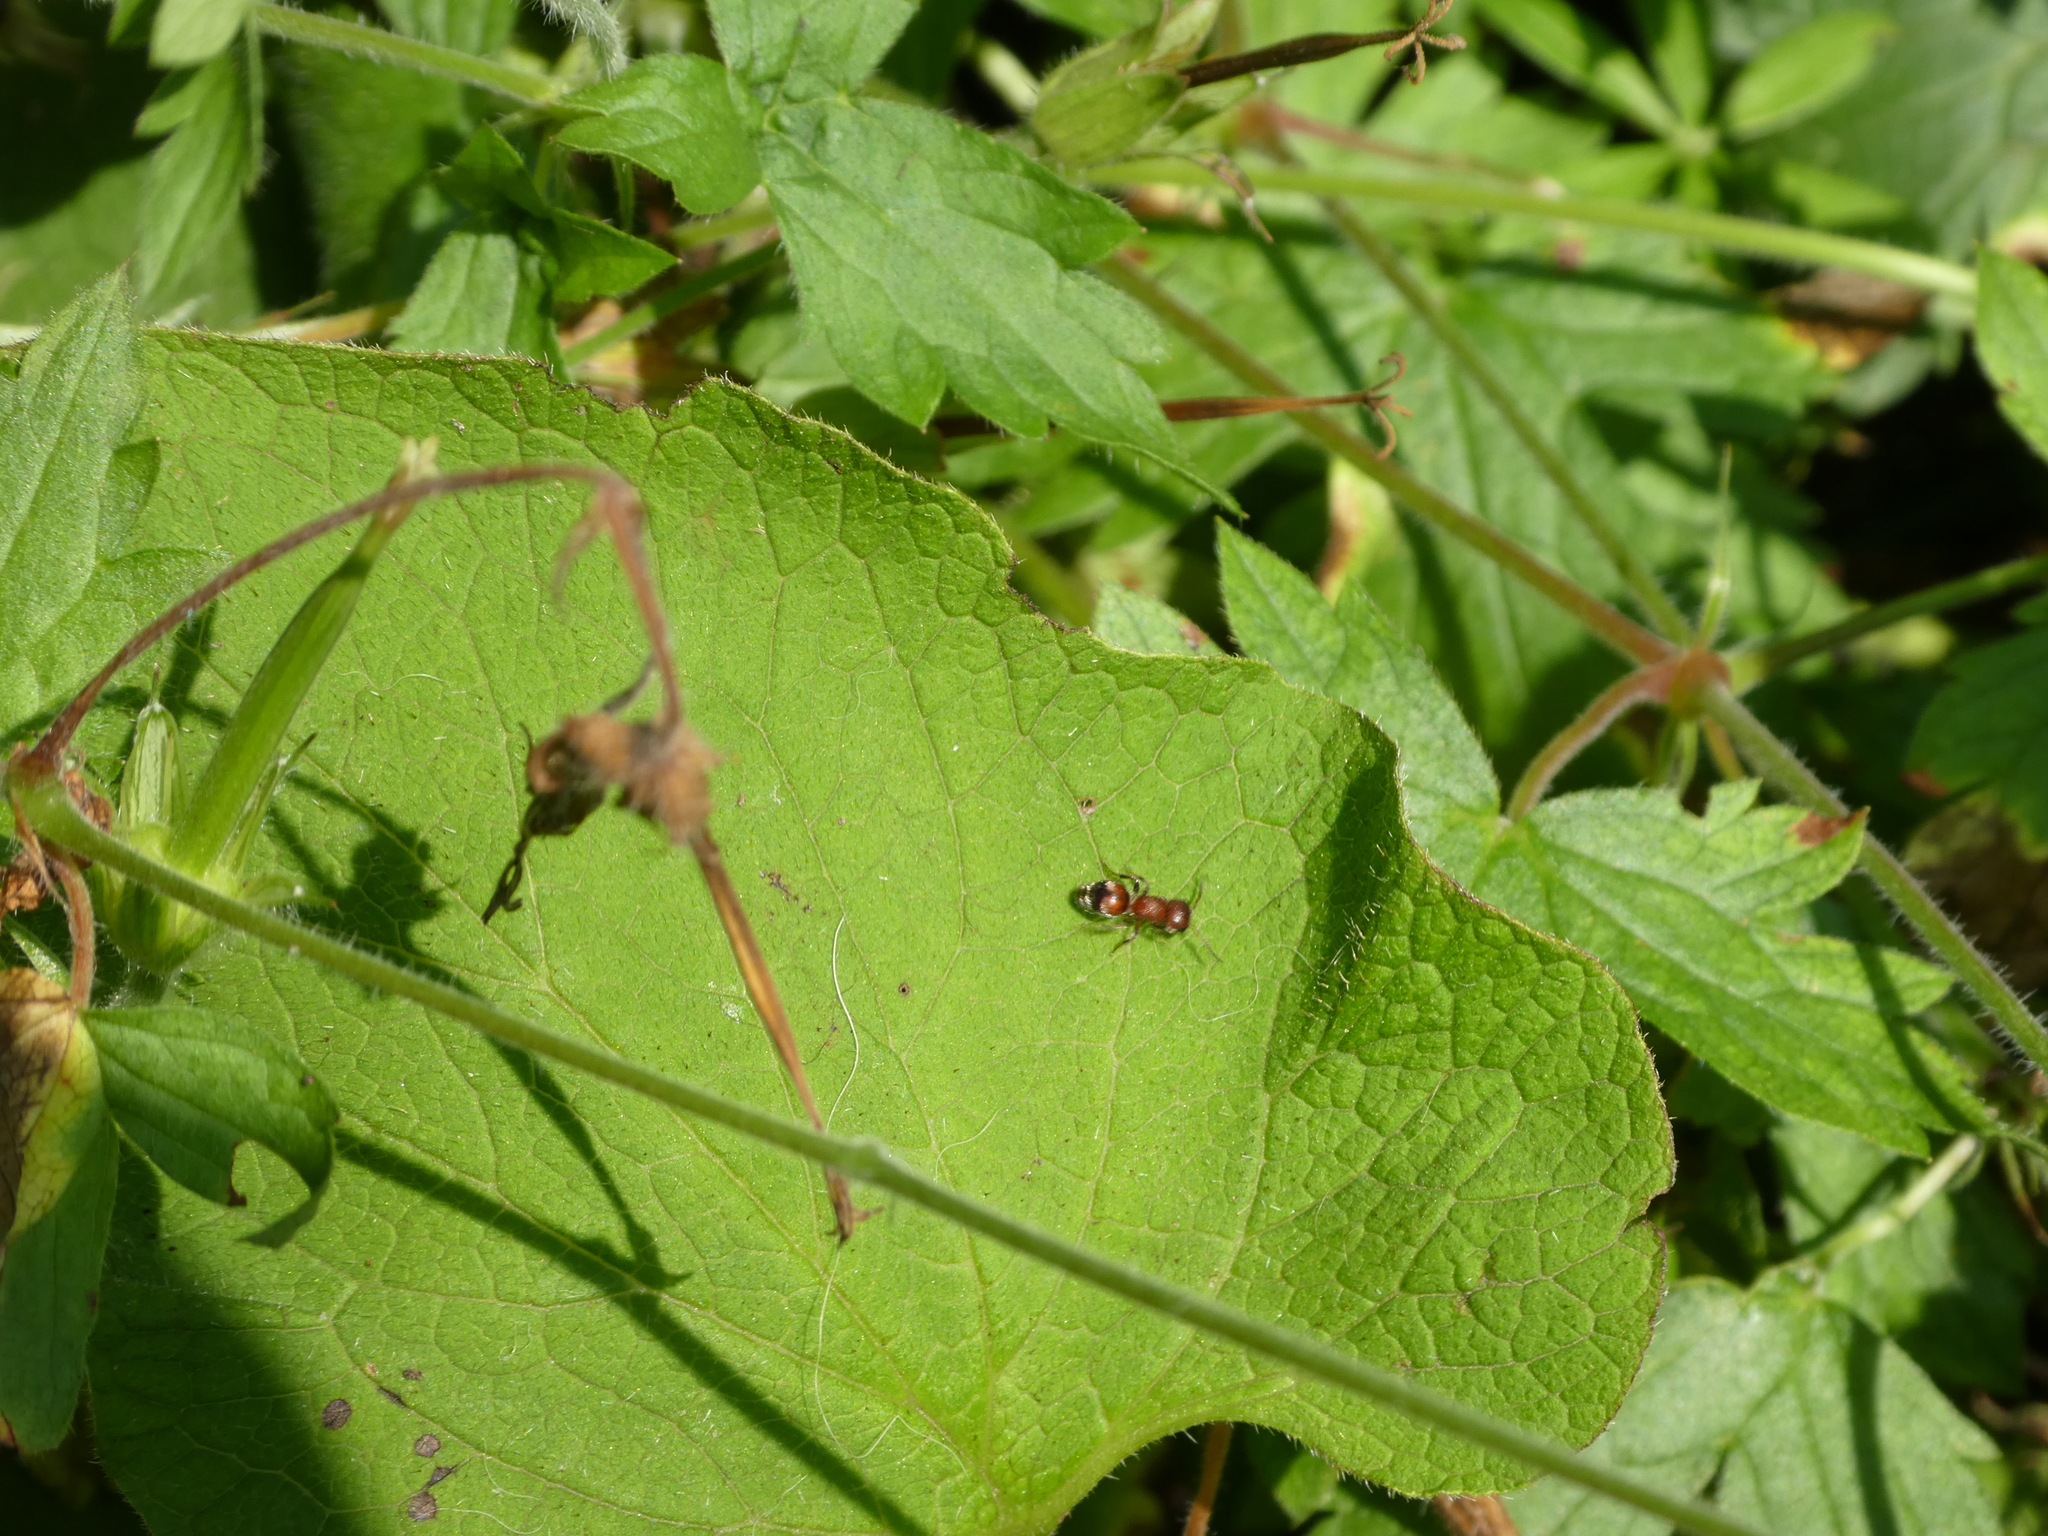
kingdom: Animalia
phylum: Arthropoda
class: Insecta
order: Hymenoptera
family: Mutillidae
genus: Pseudomethoca
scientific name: Pseudomethoca
